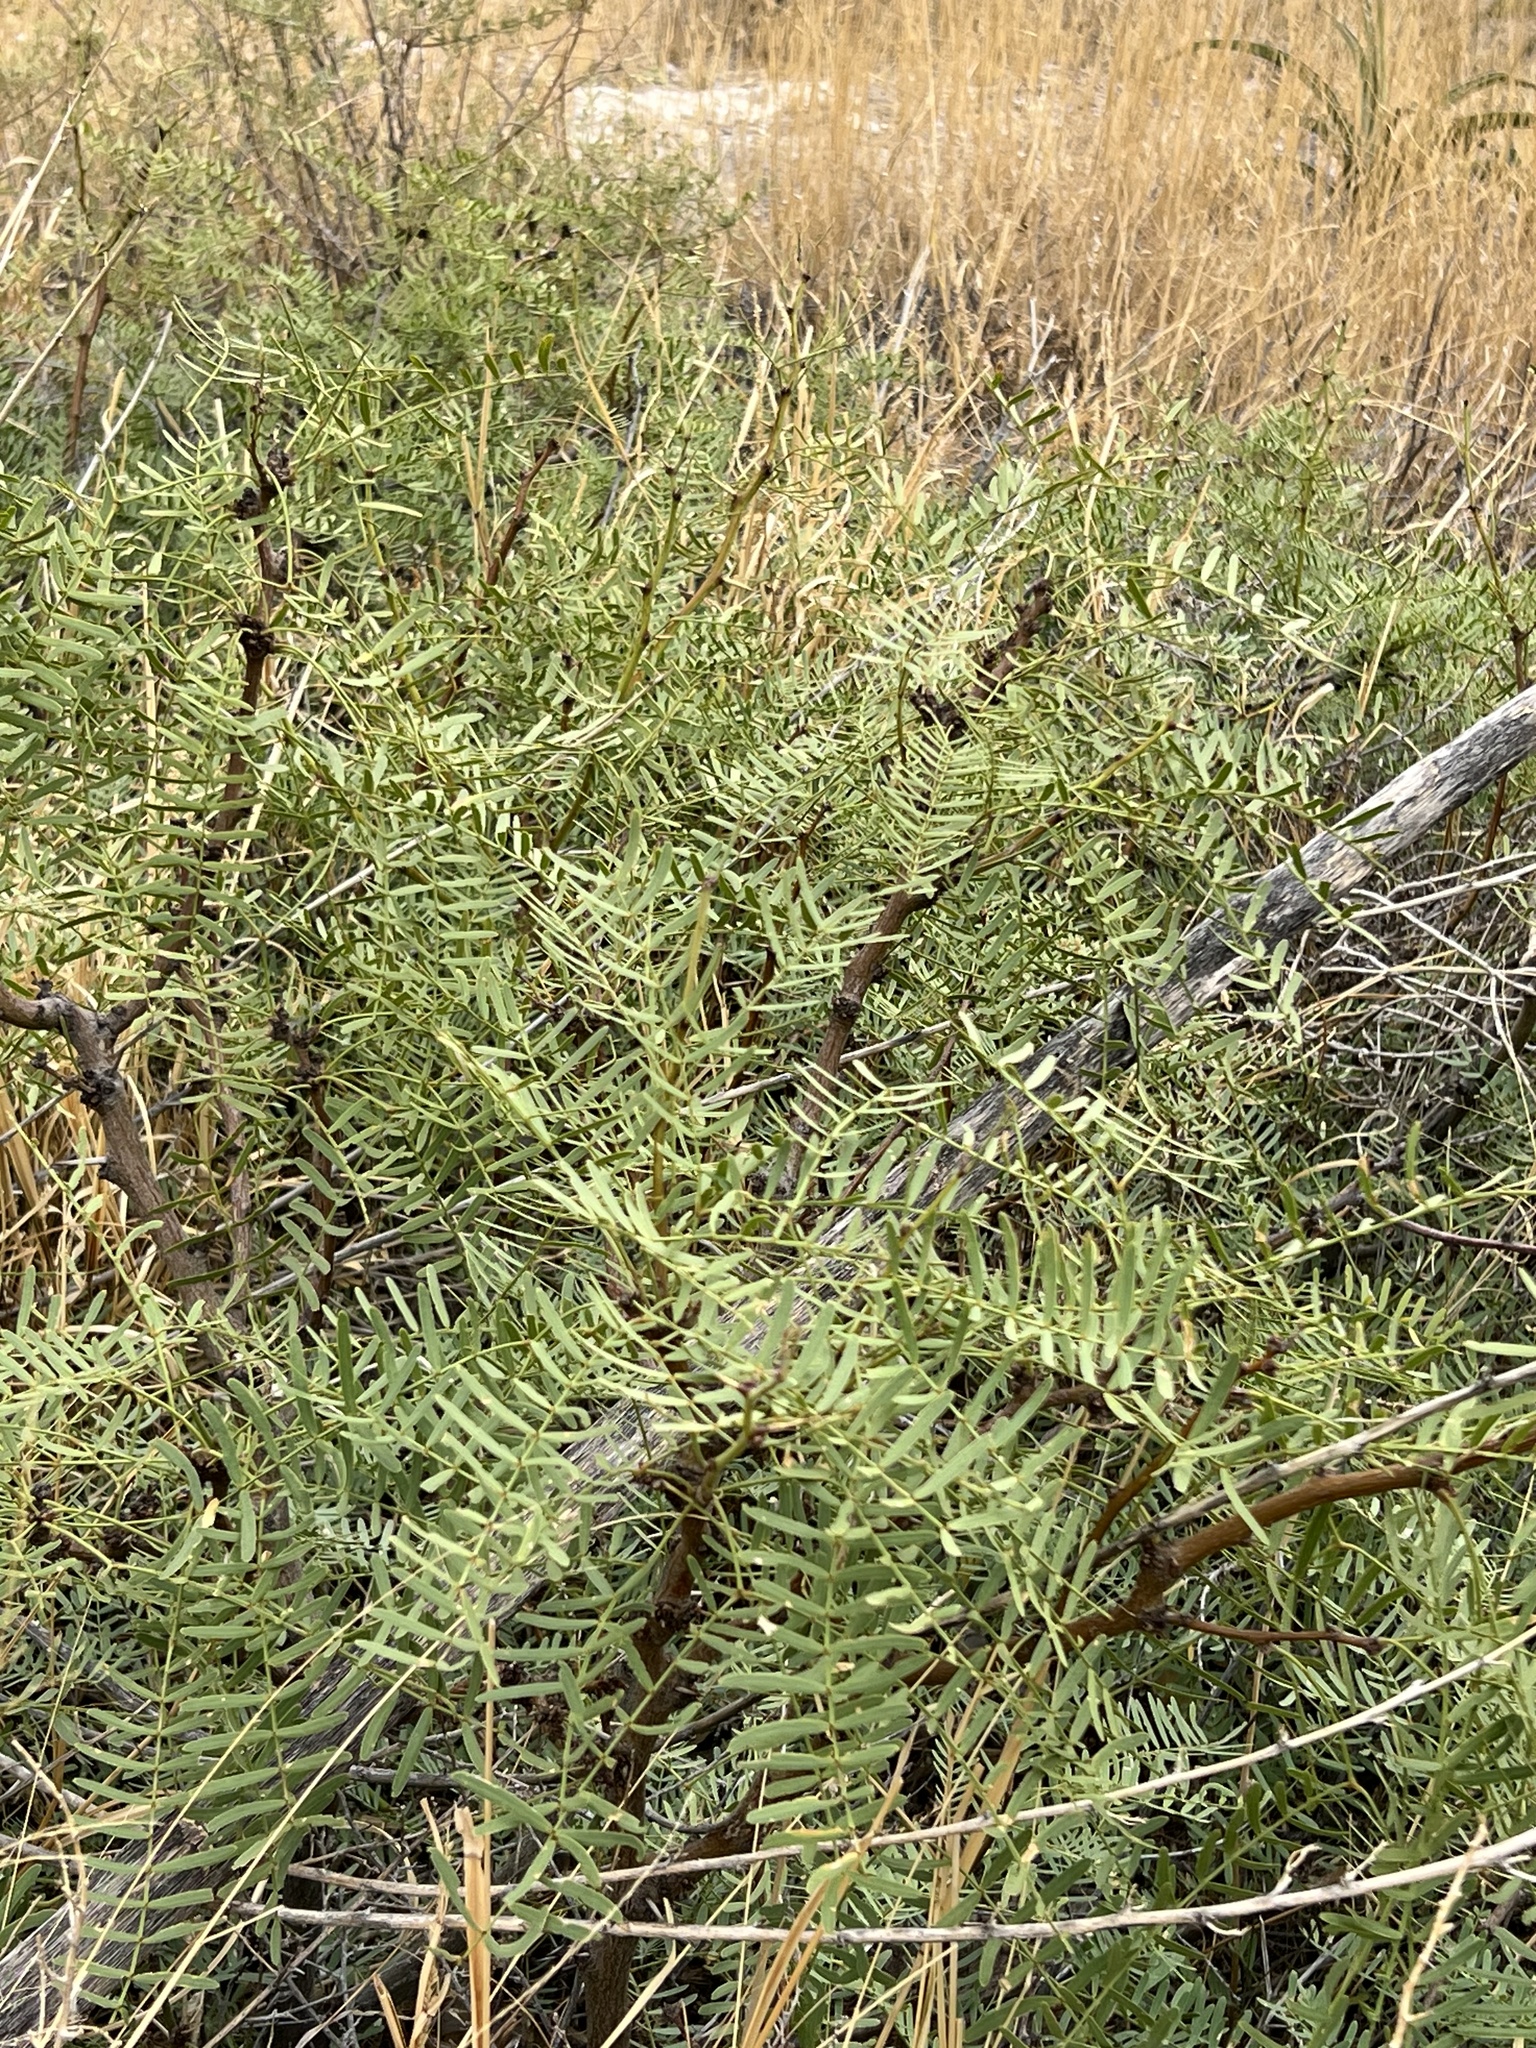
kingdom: Plantae
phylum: Tracheophyta
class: Magnoliopsida
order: Fabales
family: Fabaceae
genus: Prosopis
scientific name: Prosopis glandulosa
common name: Honey mesquite
